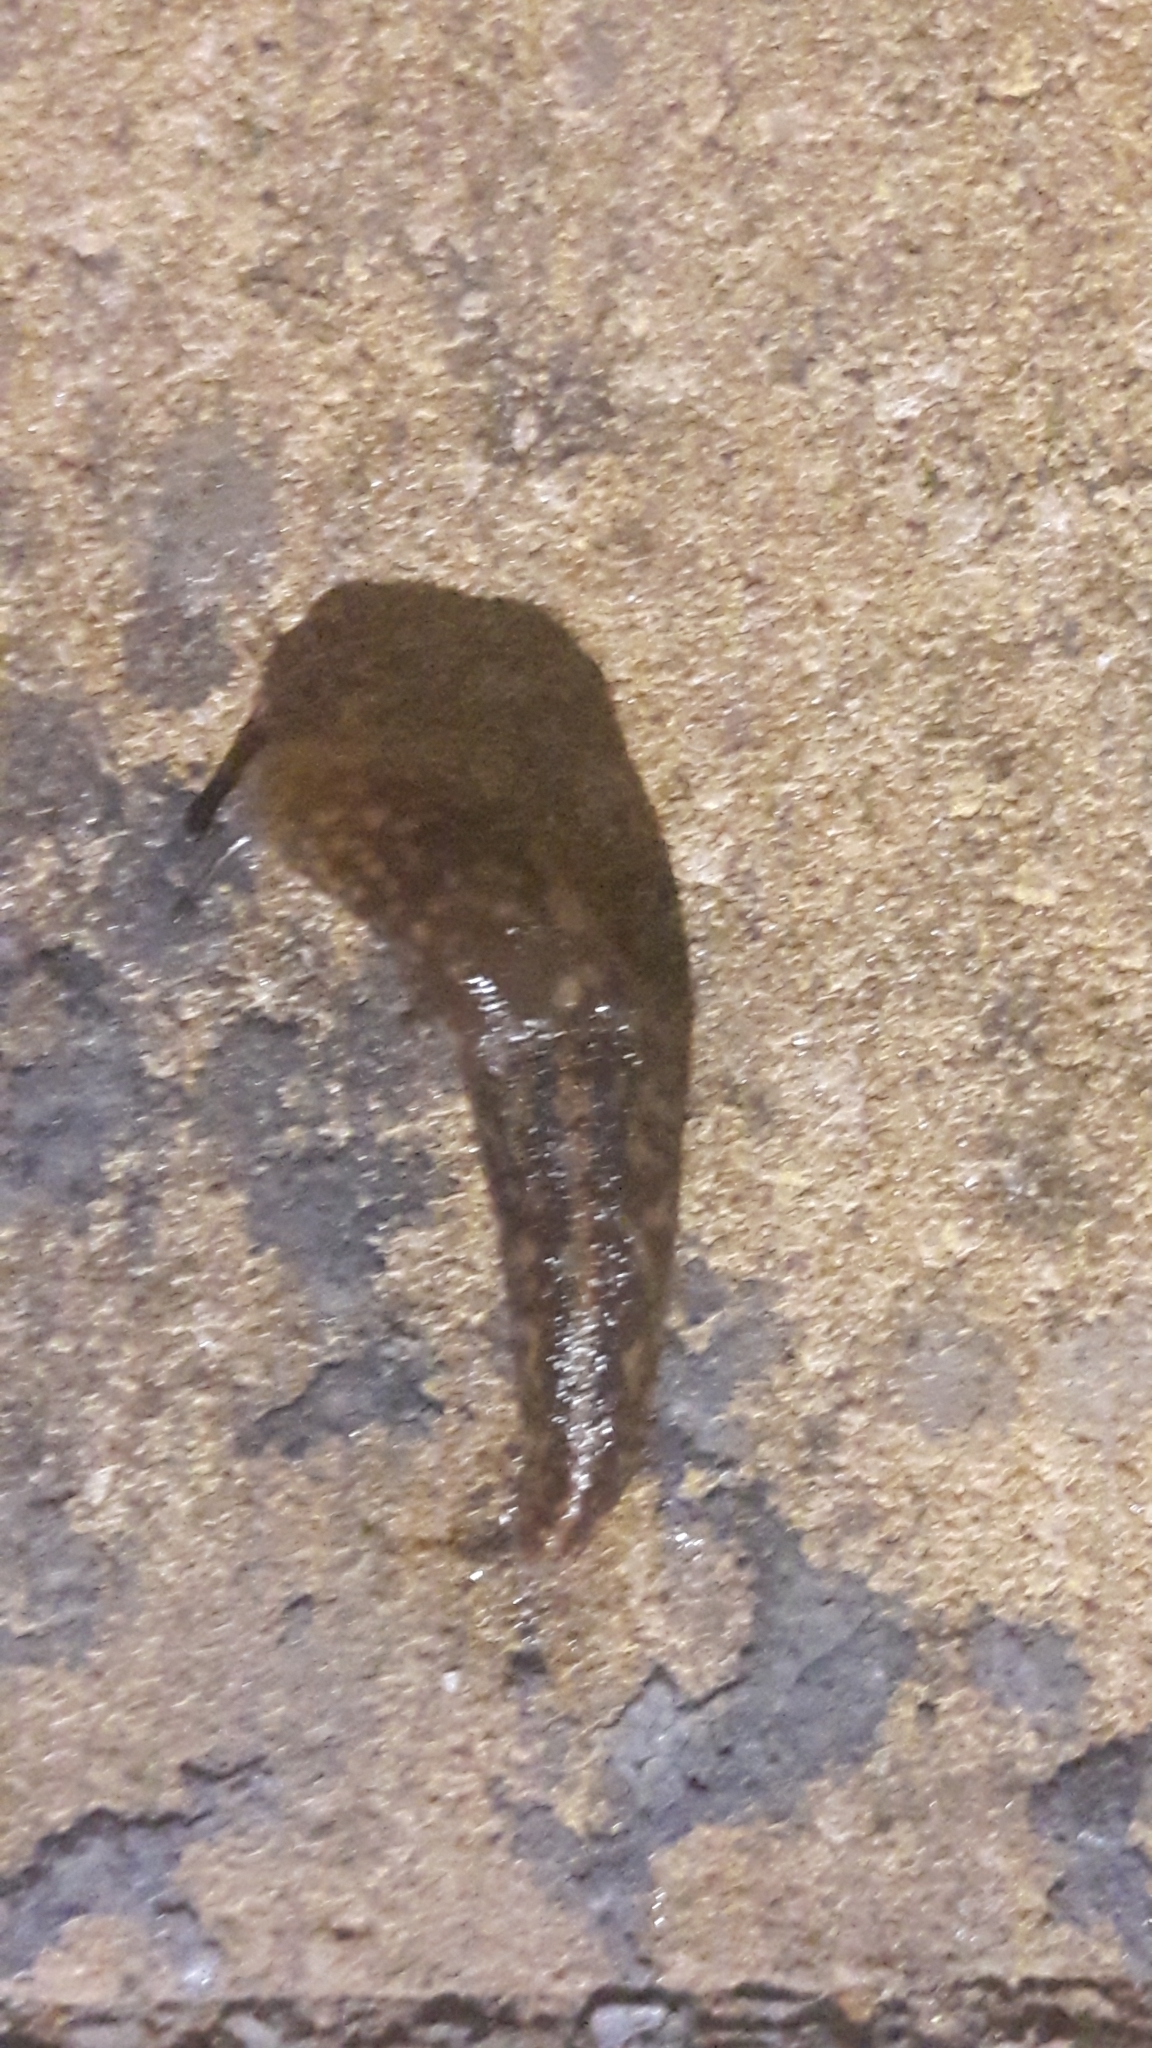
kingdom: Animalia
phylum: Mollusca
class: Gastropoda
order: Stylommatophora
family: Limacidae
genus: Limacus
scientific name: Limacus flavus
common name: Yellow gardenslug
